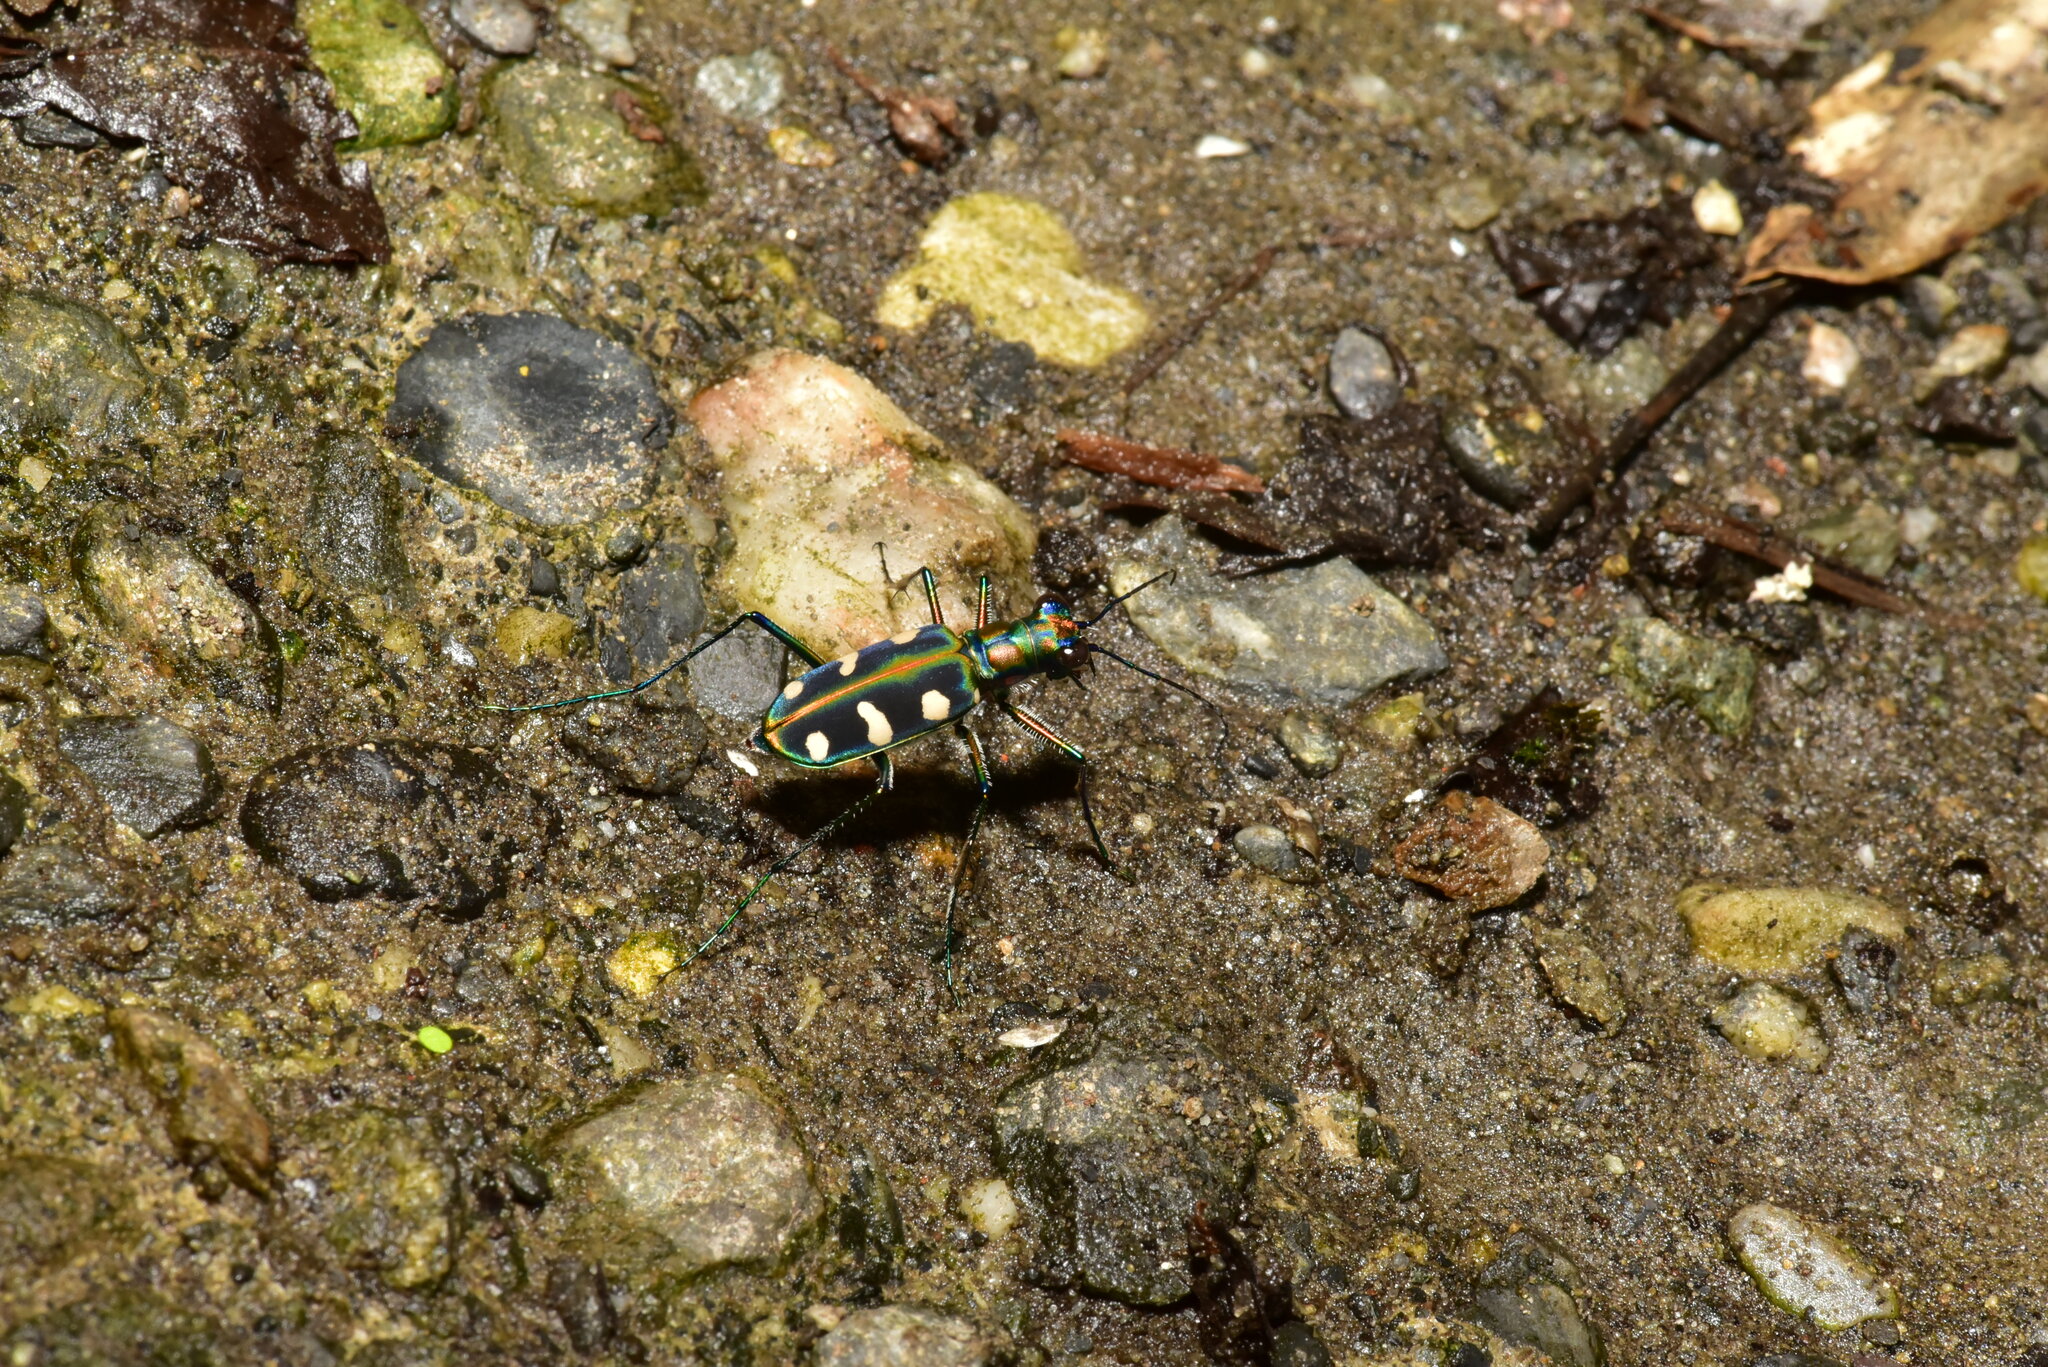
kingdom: Animalia
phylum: Arthropoda
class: Insecta
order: Coleoptera
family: Carabidae
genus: Cicindela
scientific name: Cicindela batesi
